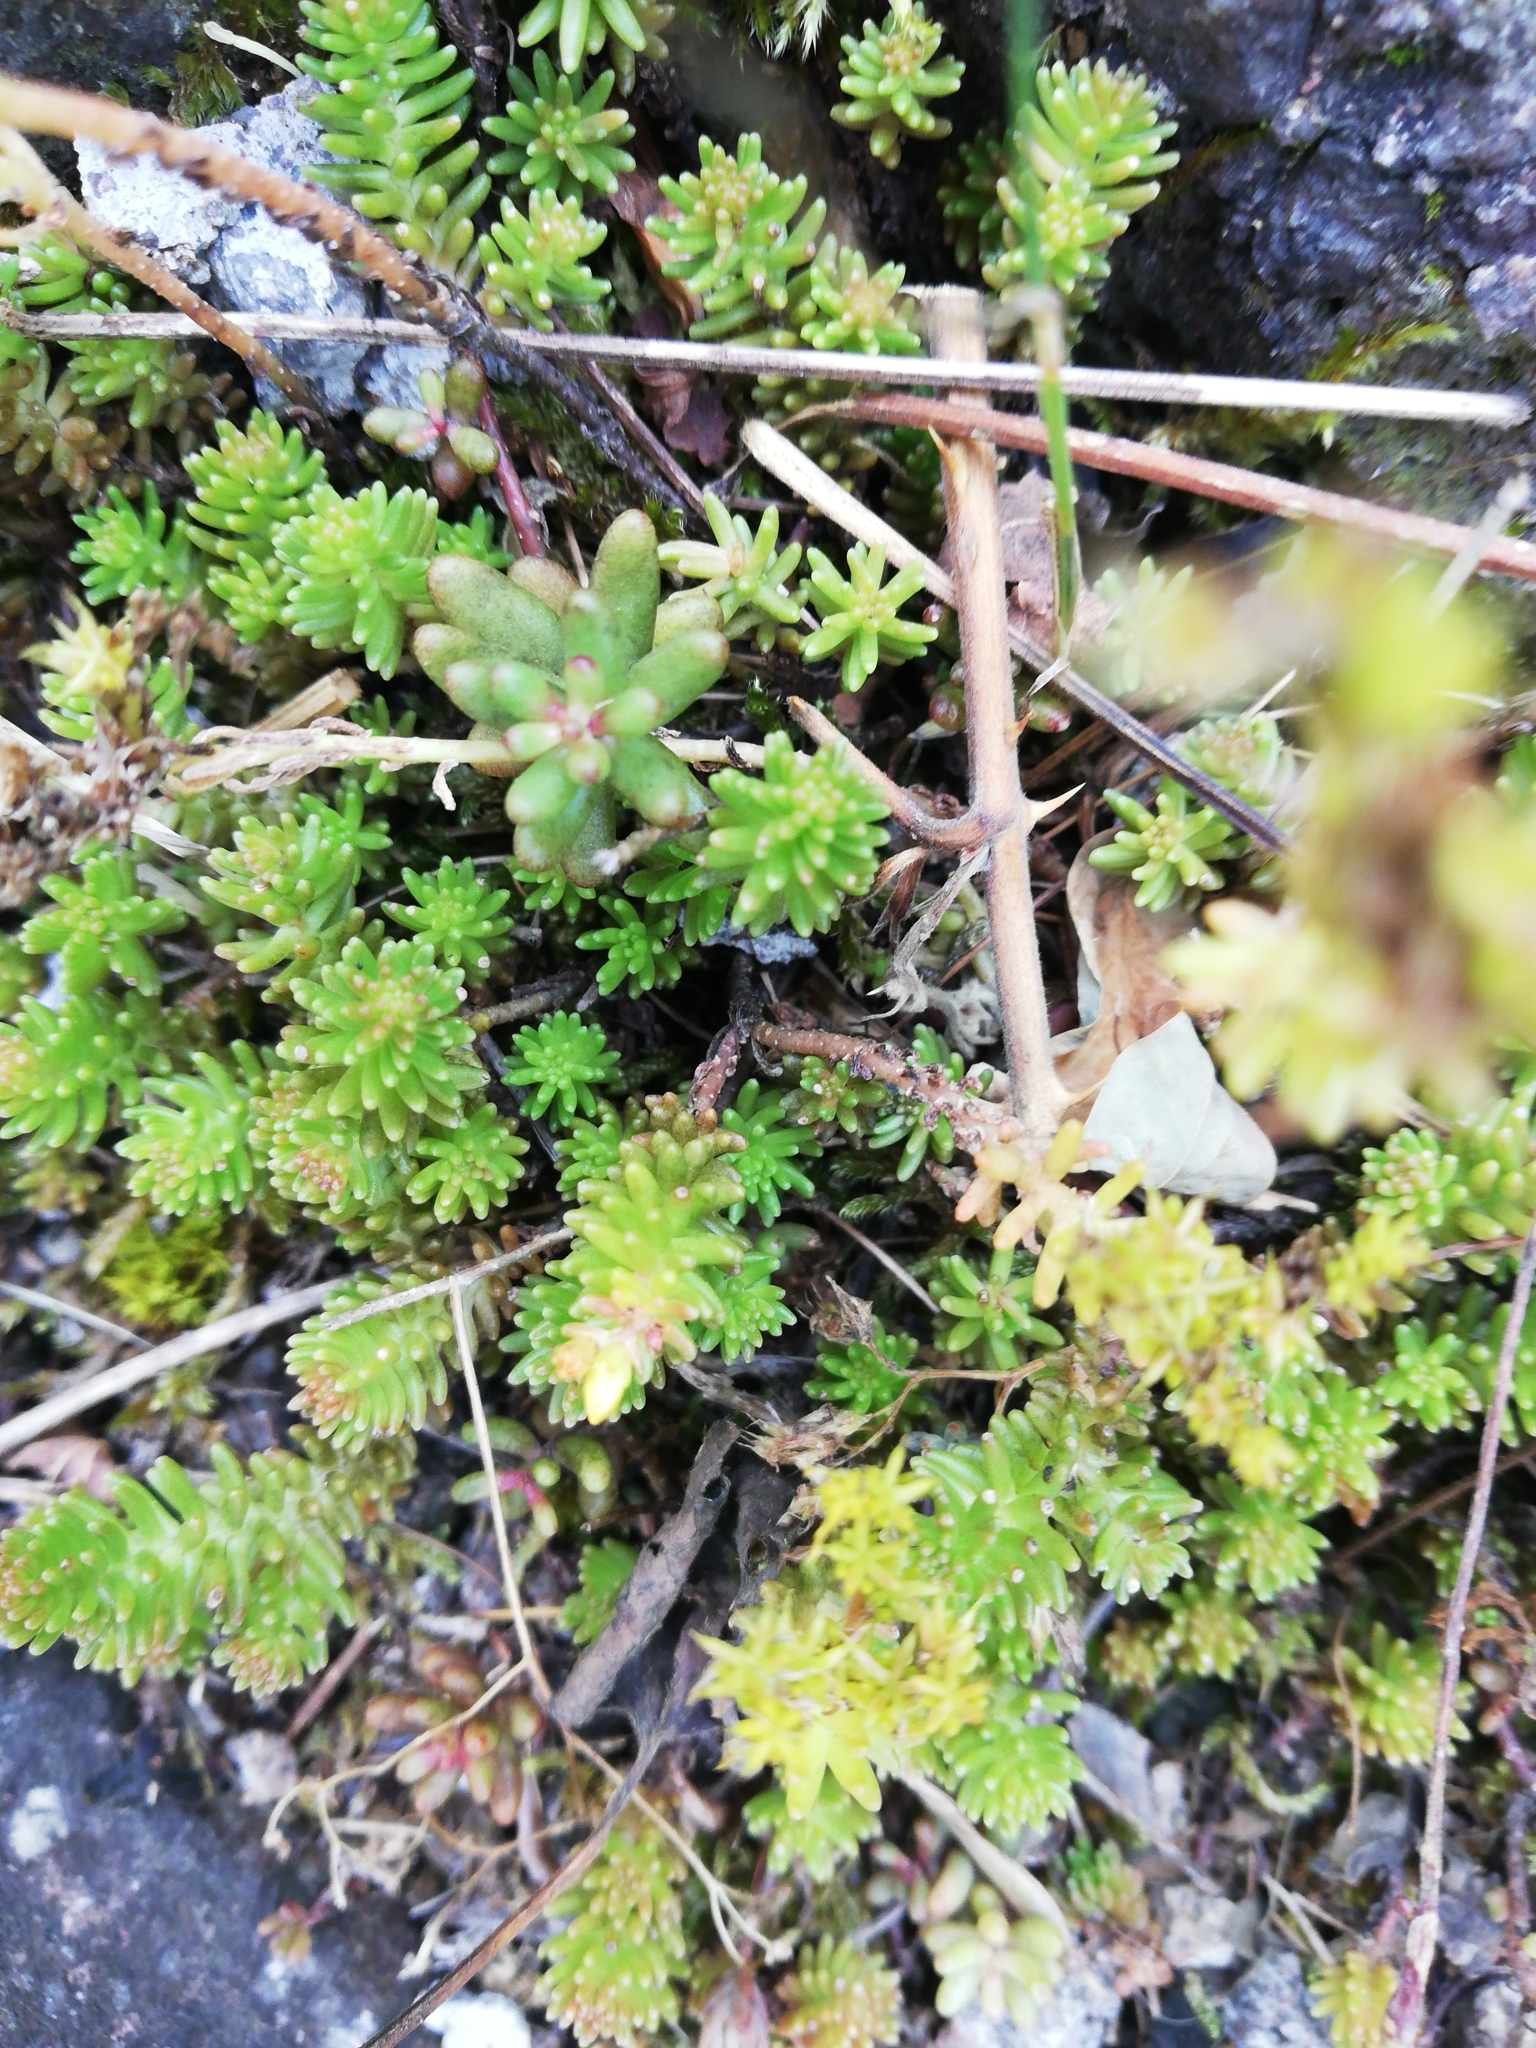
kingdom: Plantae
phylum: Tracheophyta
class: Magnoliopsida
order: Saxifragales
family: Crassulaceae
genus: Sedum
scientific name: Sedum sexangulare
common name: Tasteless stonecrop
